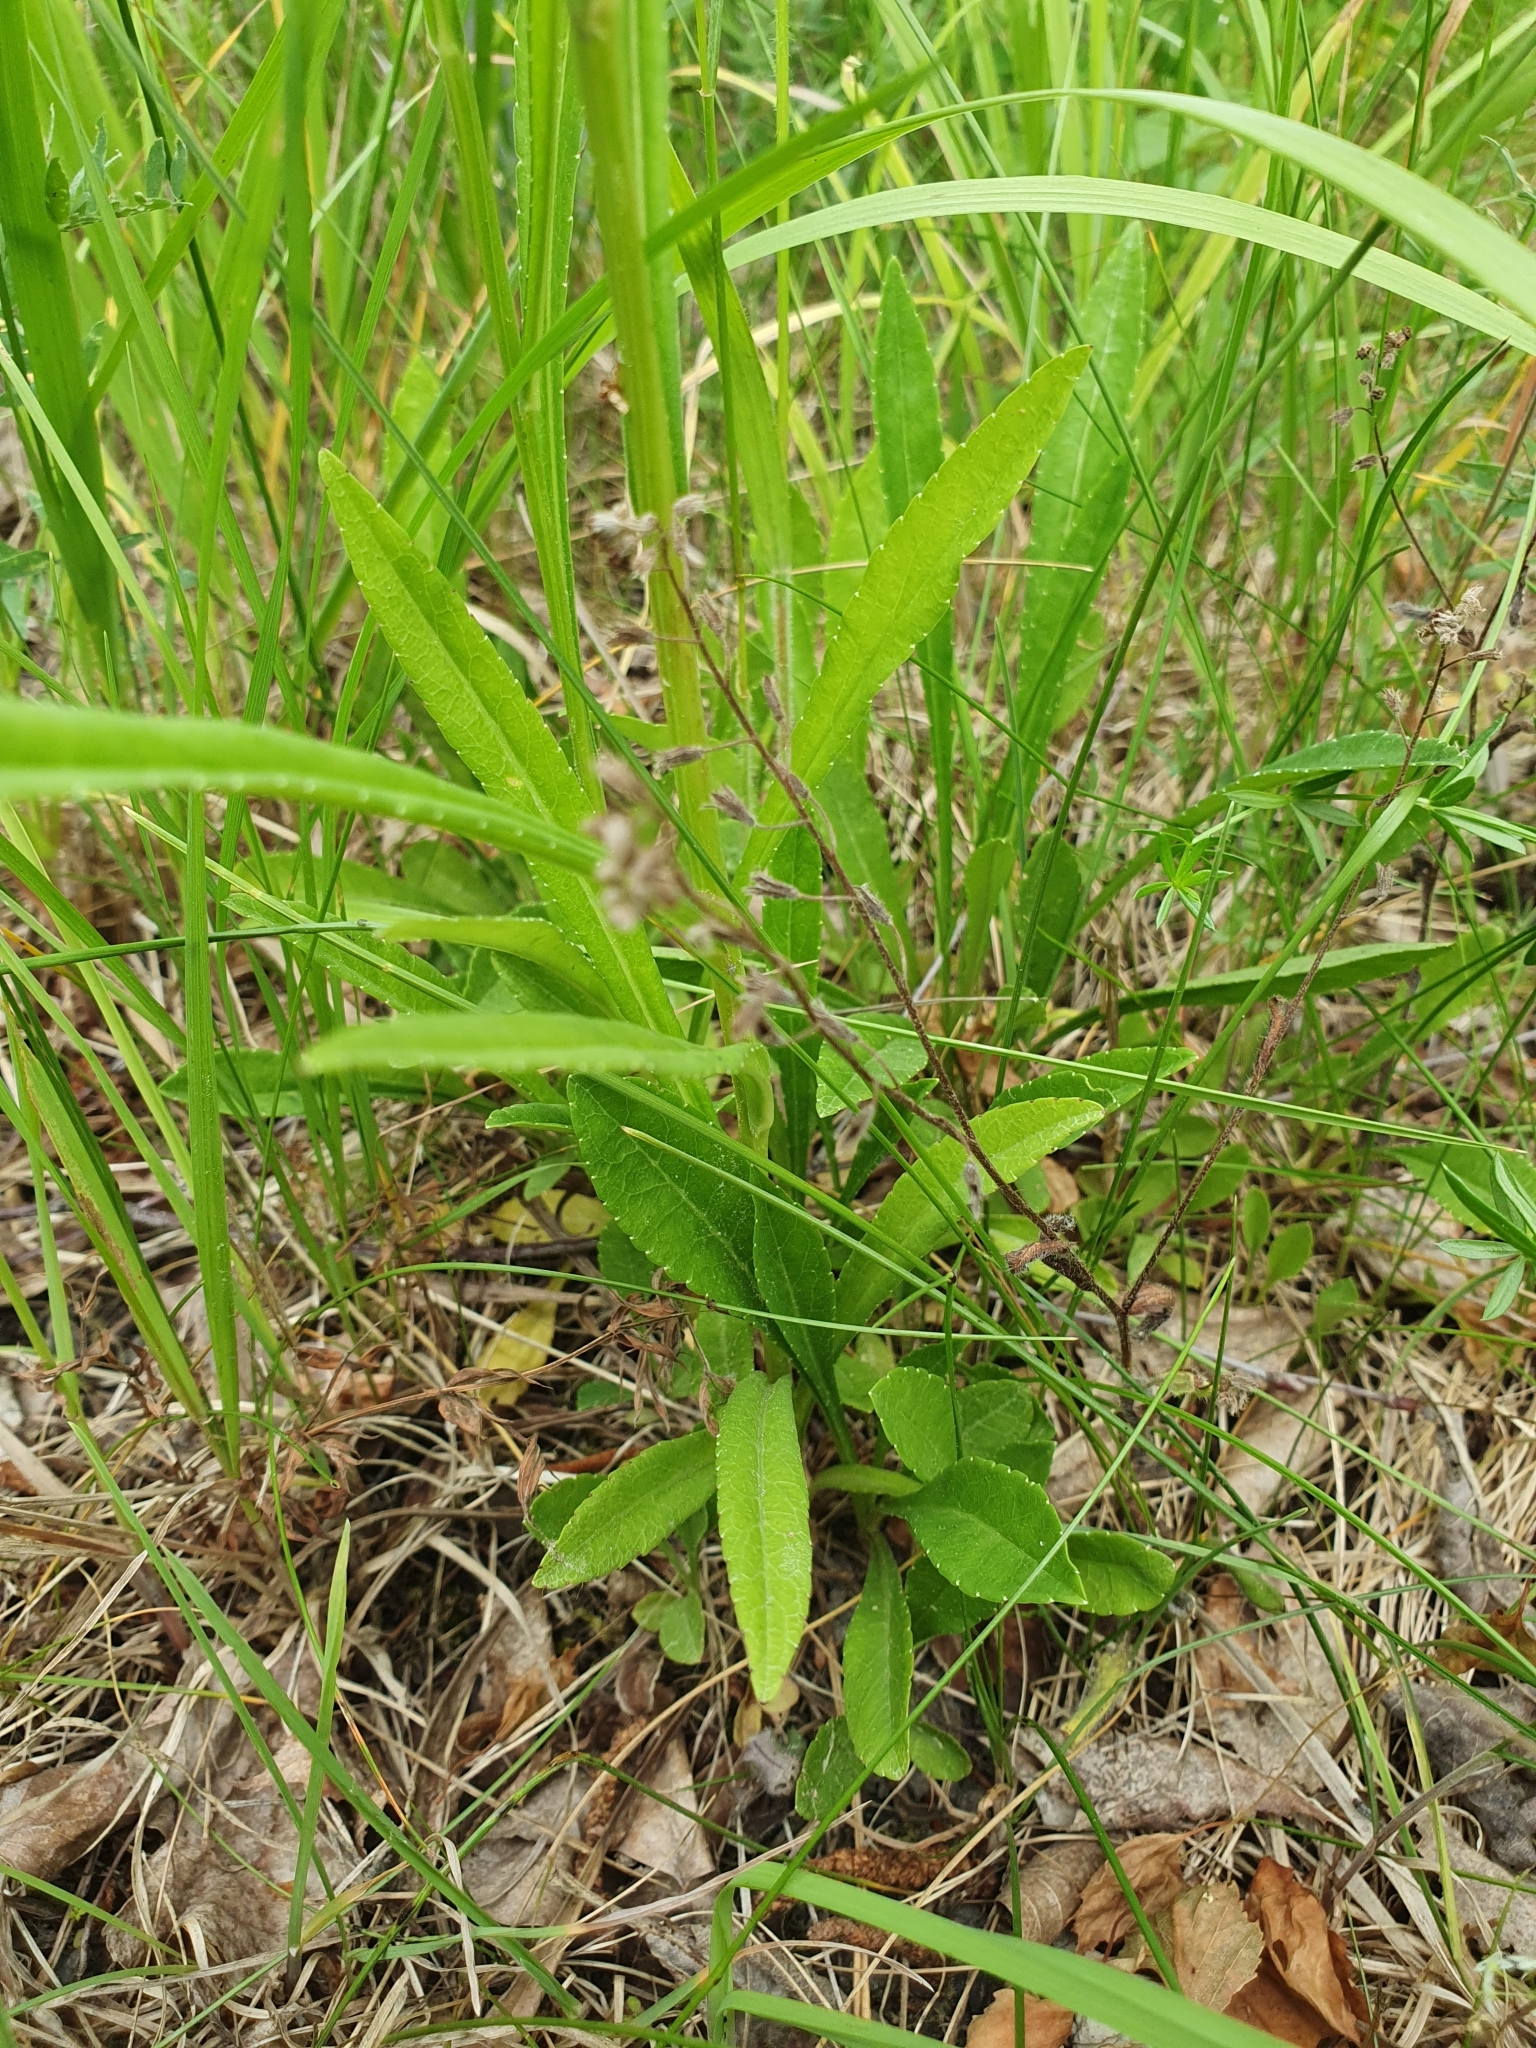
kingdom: Plantae
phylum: Tracheophyta
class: Magnoliopsida
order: Asterales
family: Campanulaceae
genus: Campanula
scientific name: Campanula persicifolia
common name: Peach-leaved bellflower
